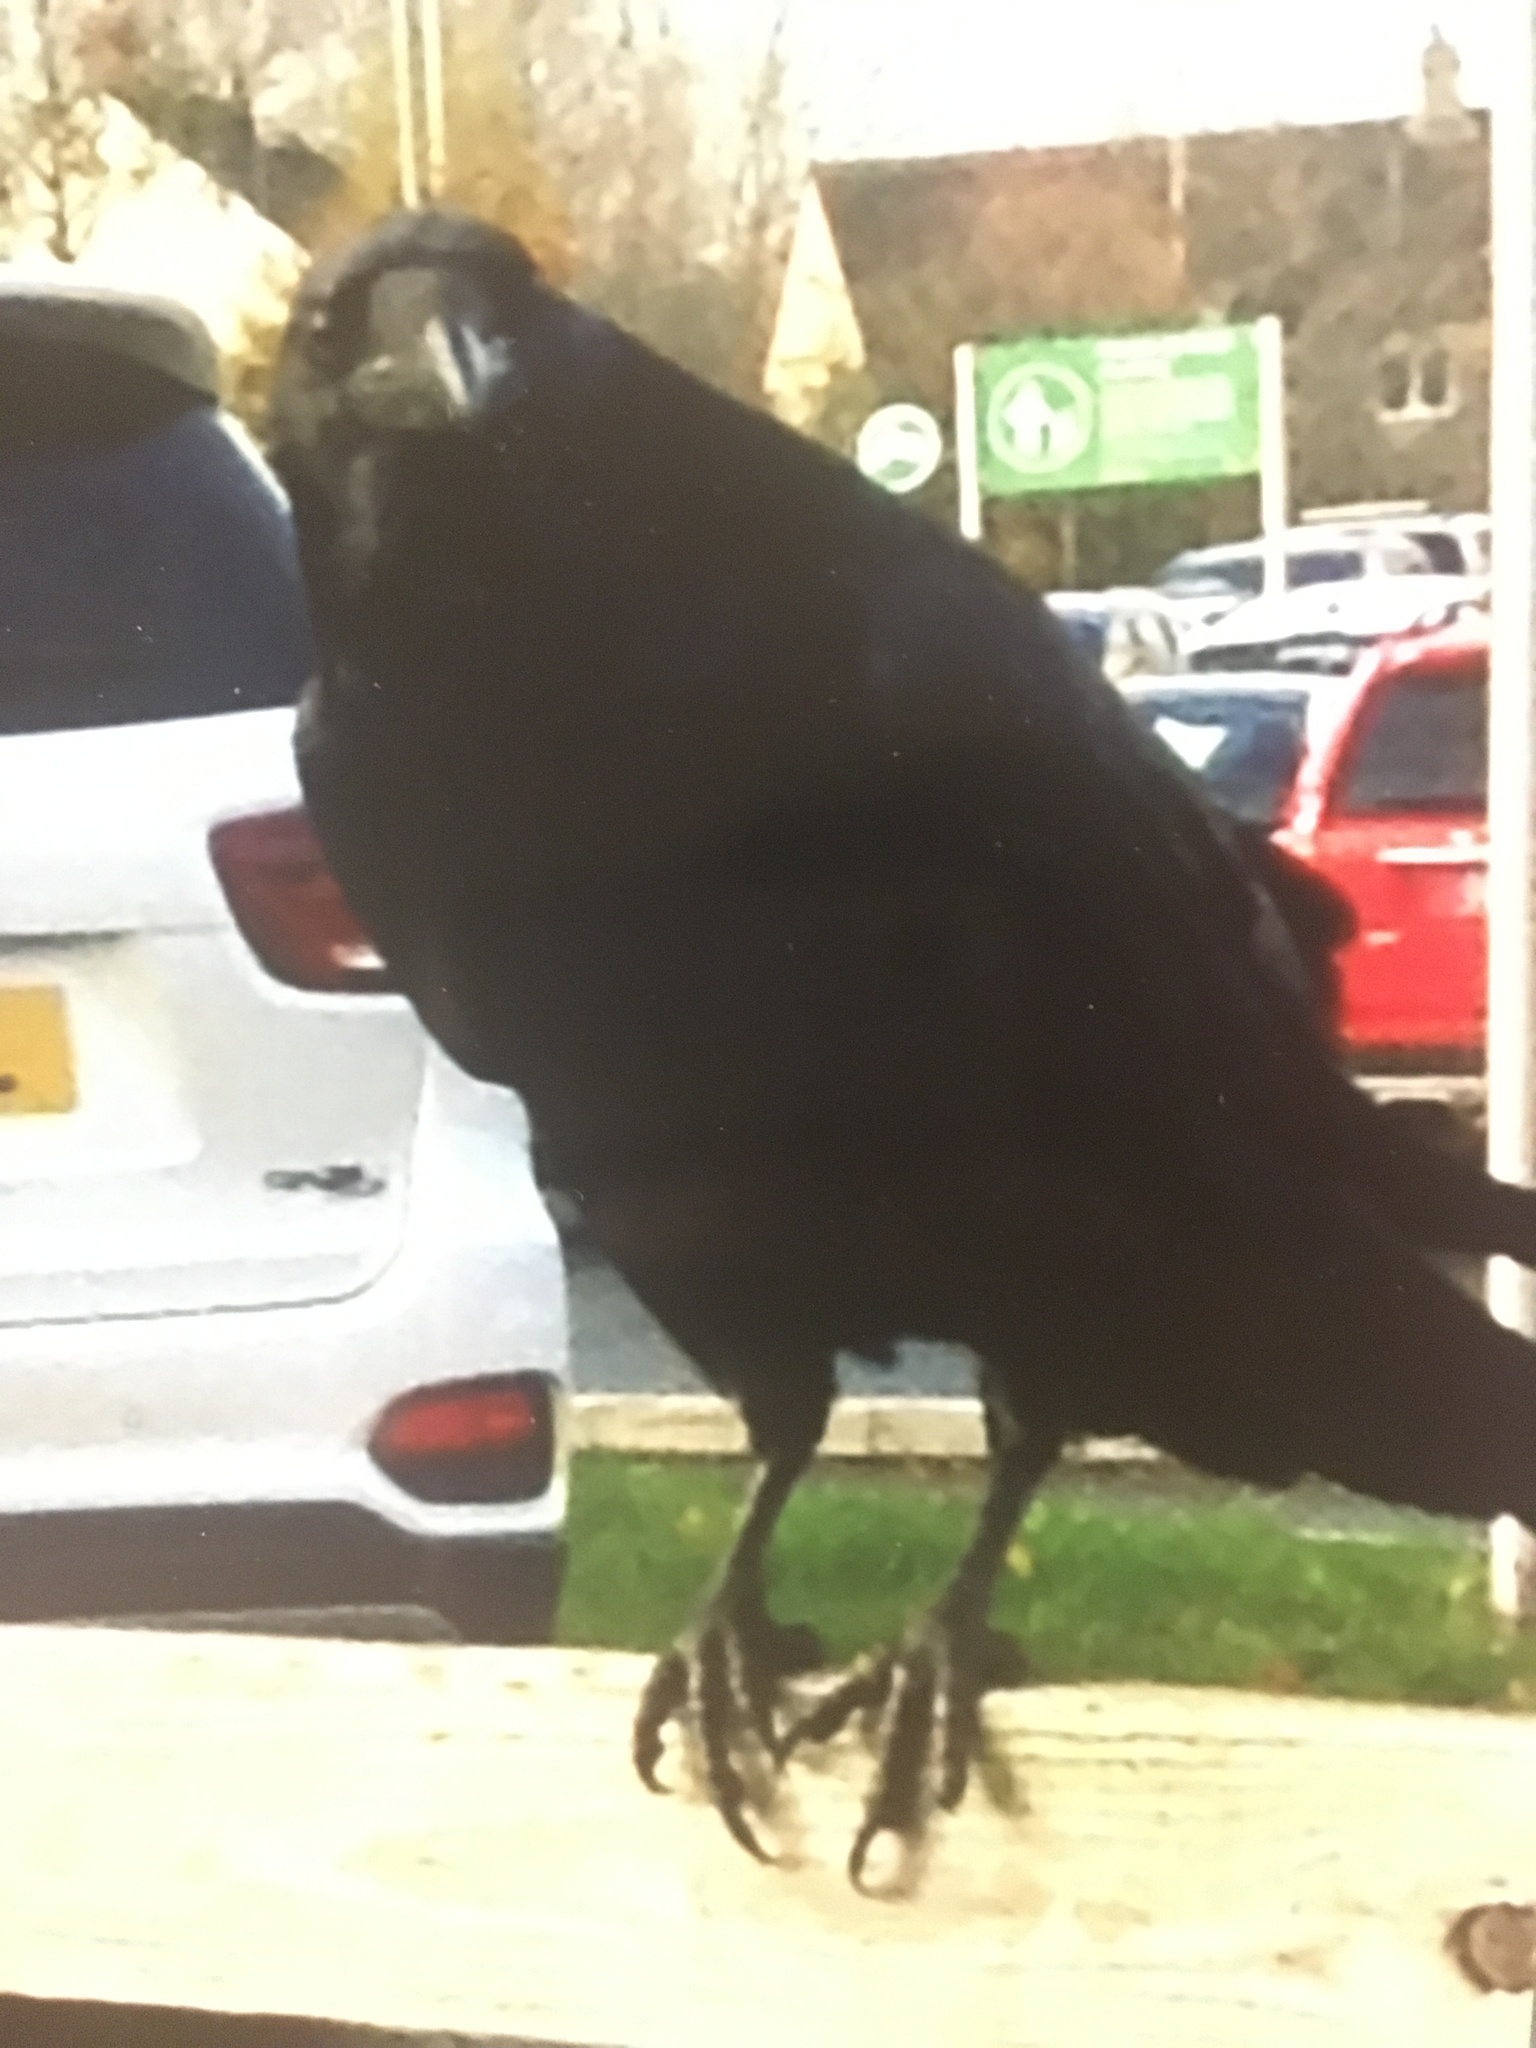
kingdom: Animalia
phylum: Chordata
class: Aves
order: Passeriformes
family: Corvidae
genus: Corvus
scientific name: Corvus corax
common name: Common raven
